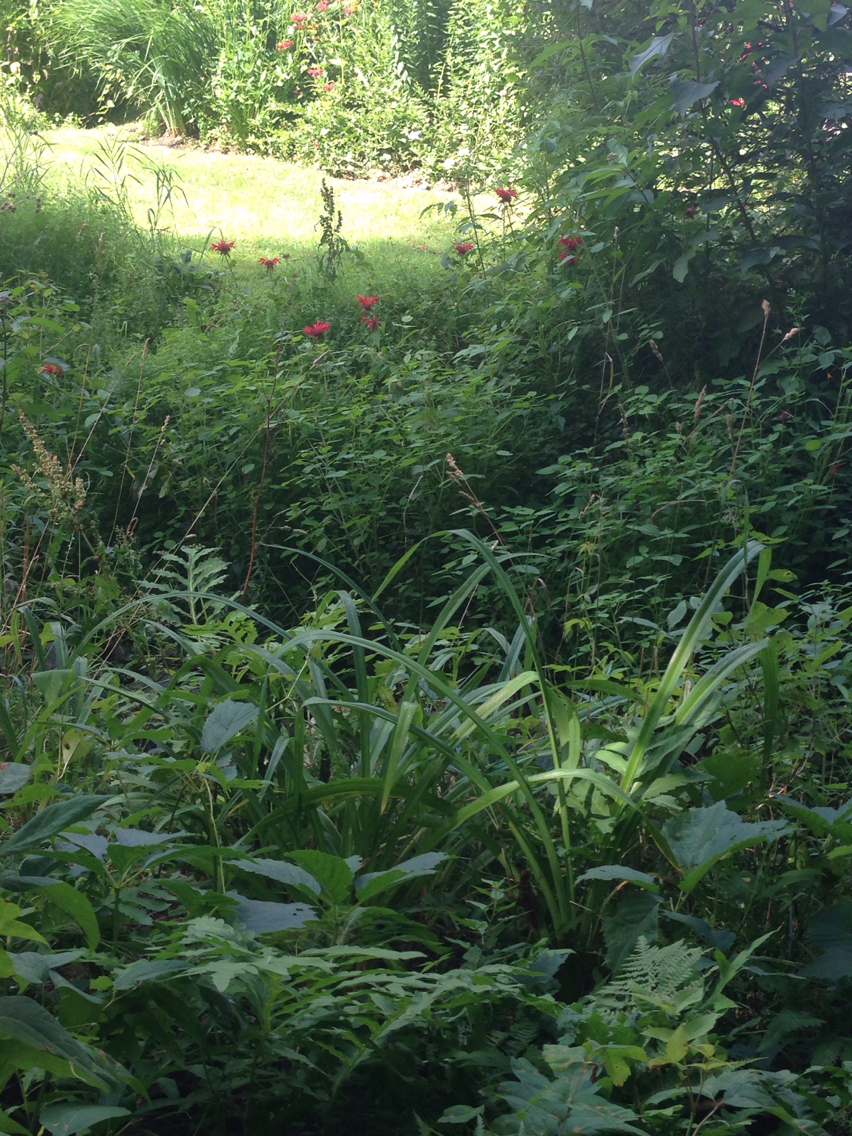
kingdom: Plantae
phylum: Tracheophyta
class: Magnoliopsida
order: Lamiales
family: Lamiaceae
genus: Monarda
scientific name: Monarda didyma
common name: Beebalm
